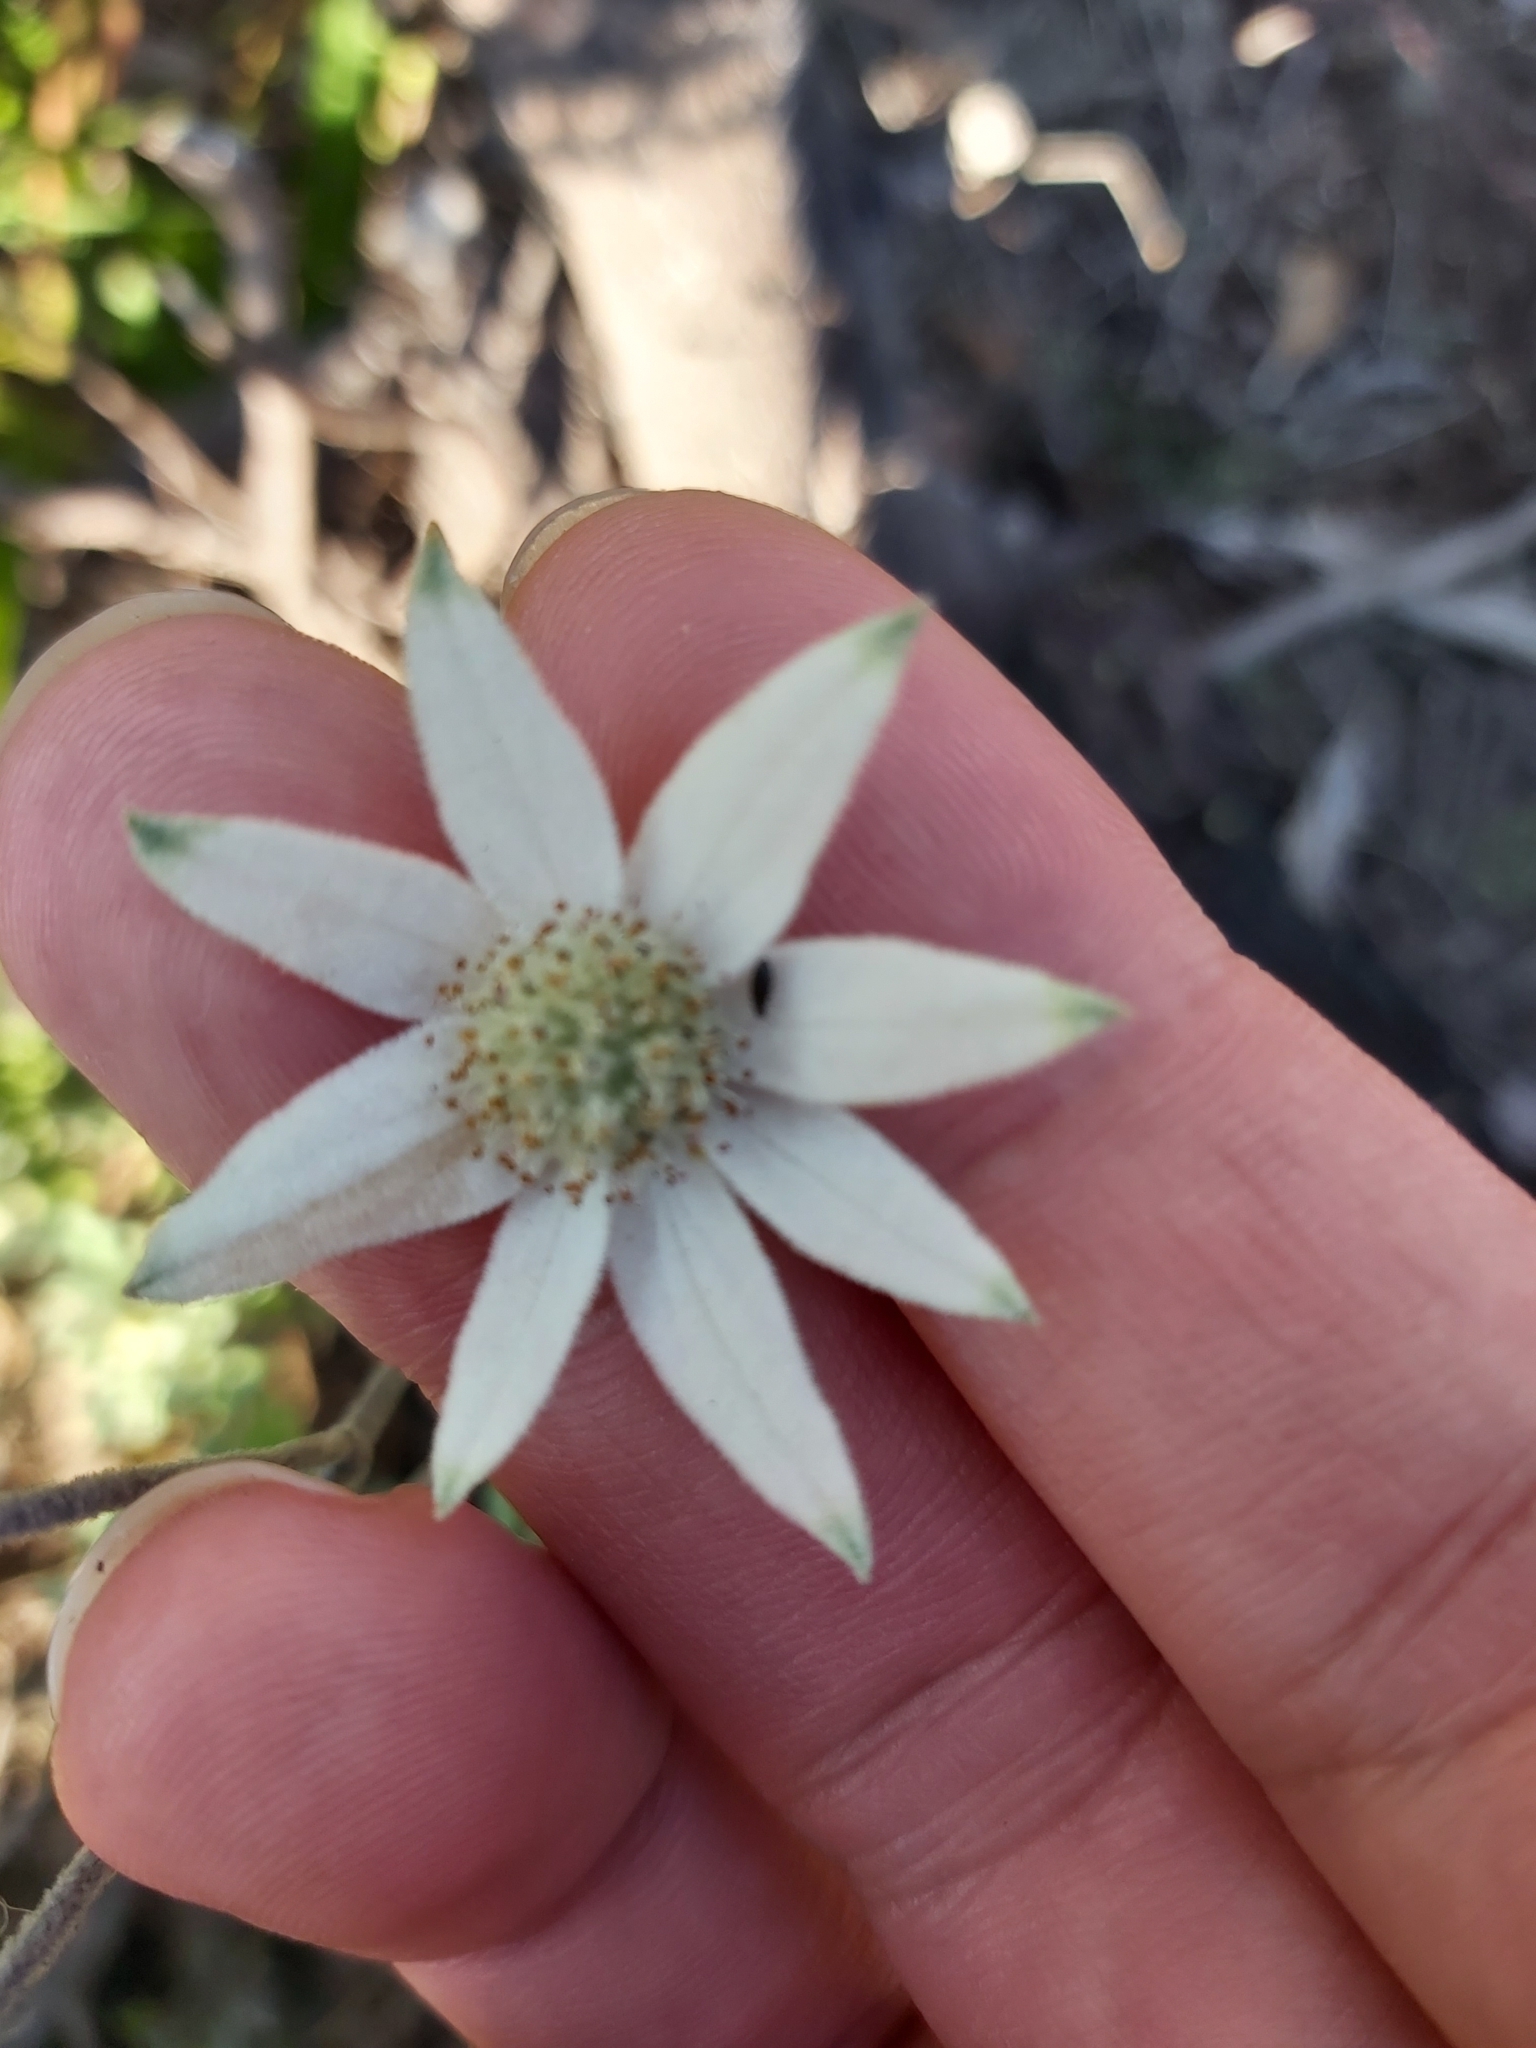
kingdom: Plantae
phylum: Tracheophyta
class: Magnoliopsida
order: Apiales
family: Apiaceae
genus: Actinotus
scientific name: Actinotus helianthi
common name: Flannel-flower
